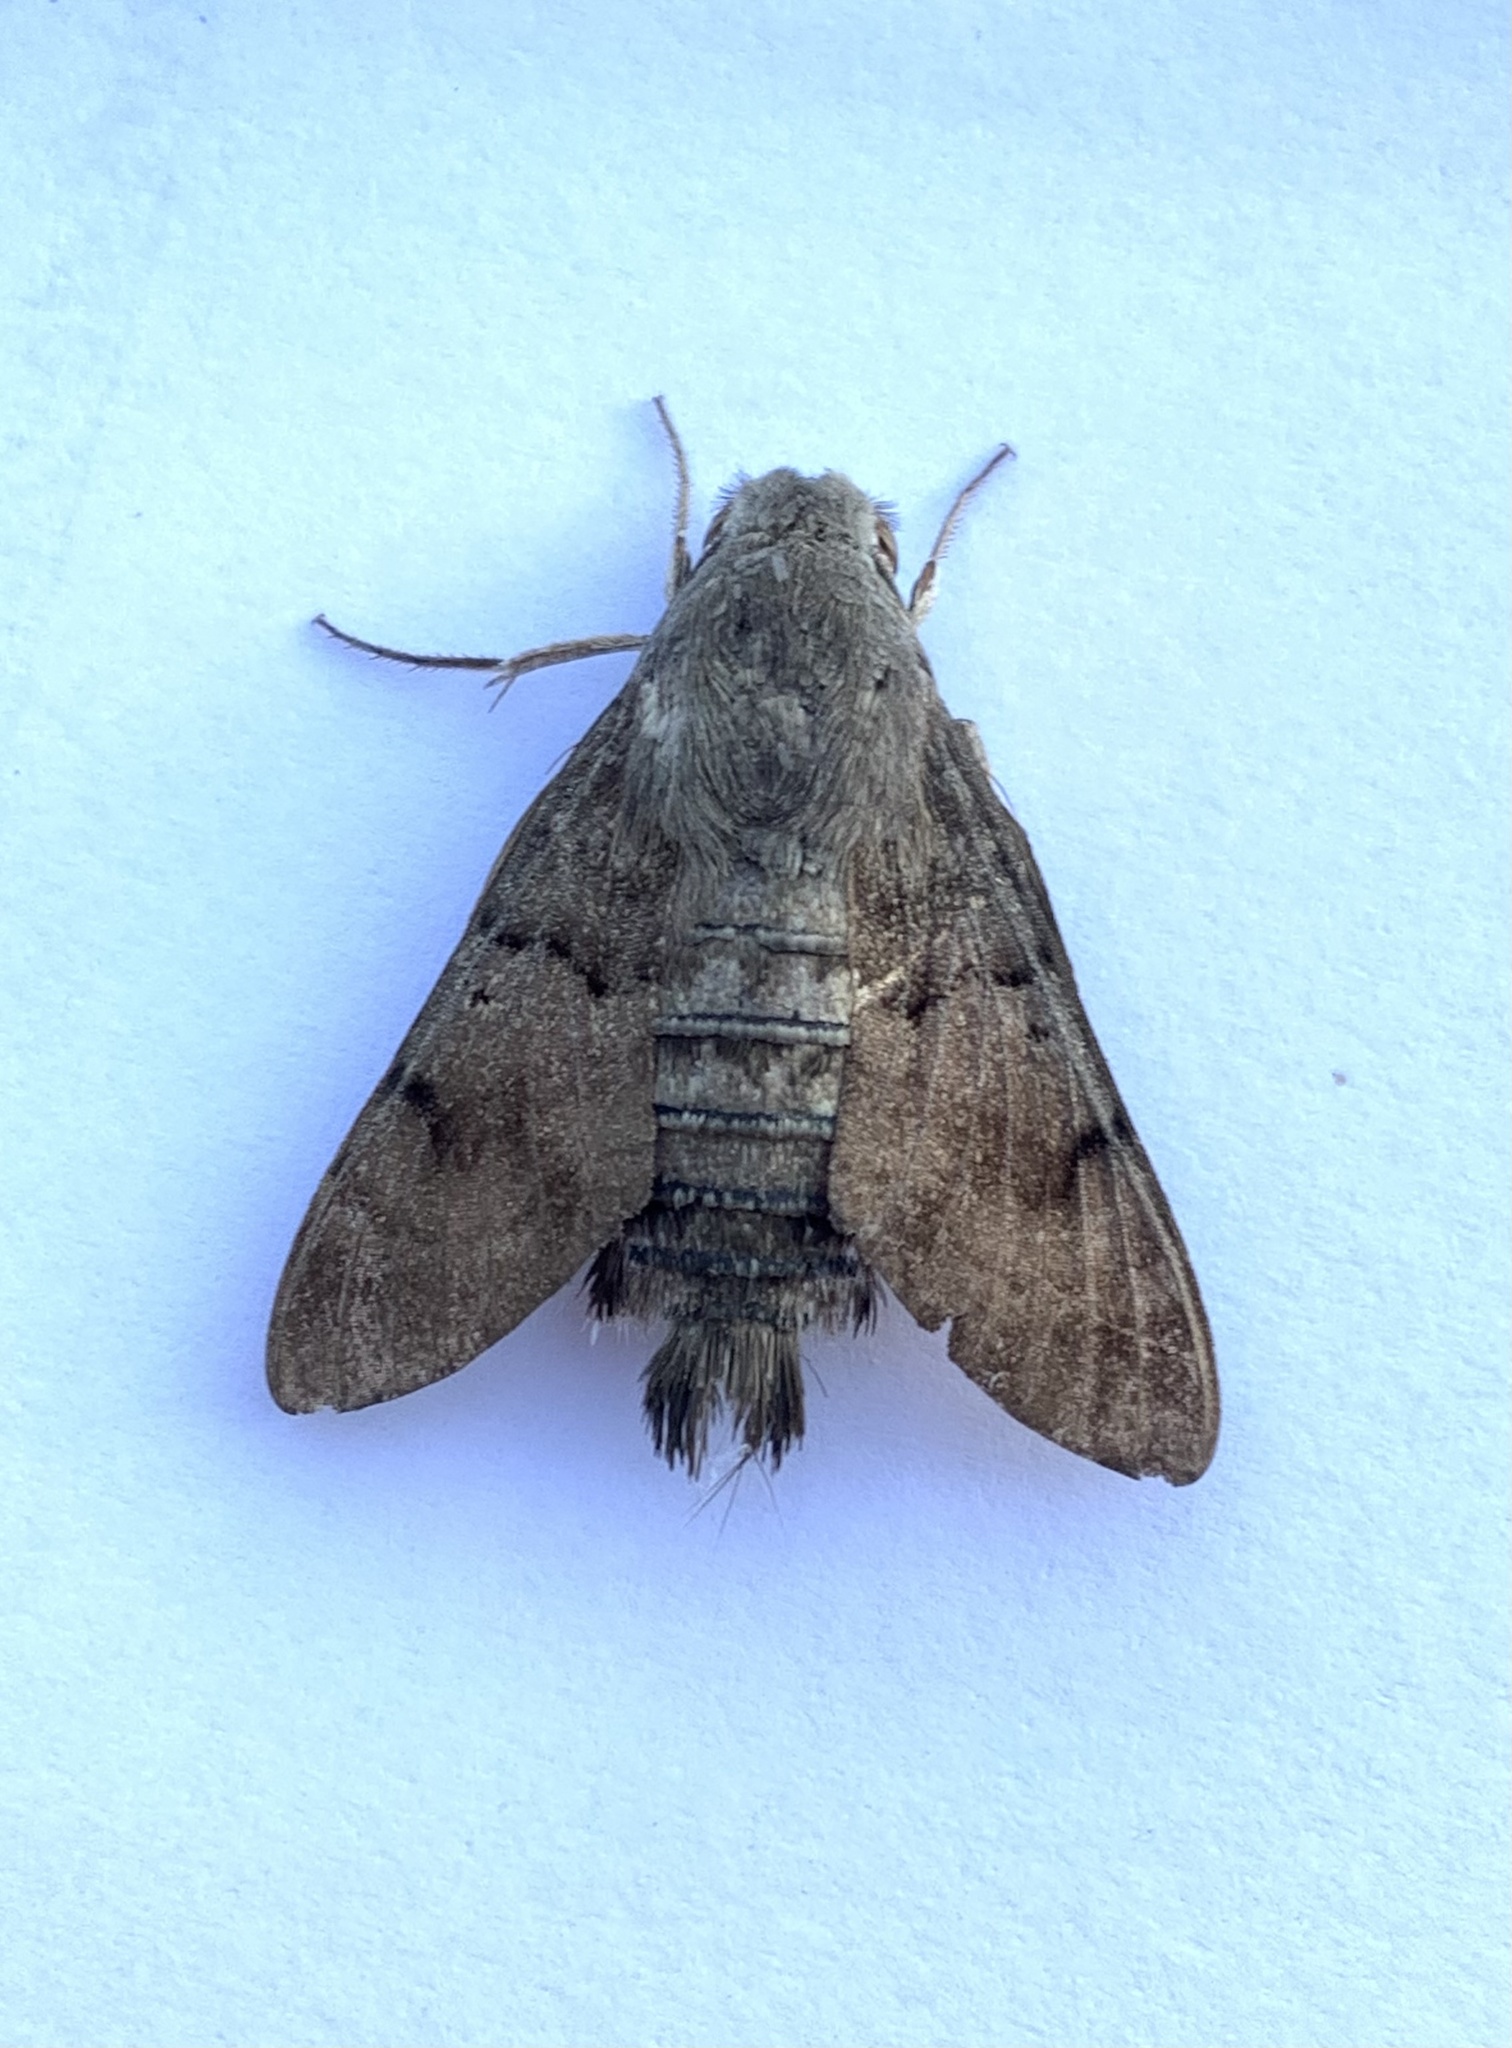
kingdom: Animalia
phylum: Arthropoda
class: Insecta
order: Lepidoptera
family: Sphingidae
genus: Macroglossum
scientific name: Macroglossum stellatarum
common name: Humming-bird hawk-moth
